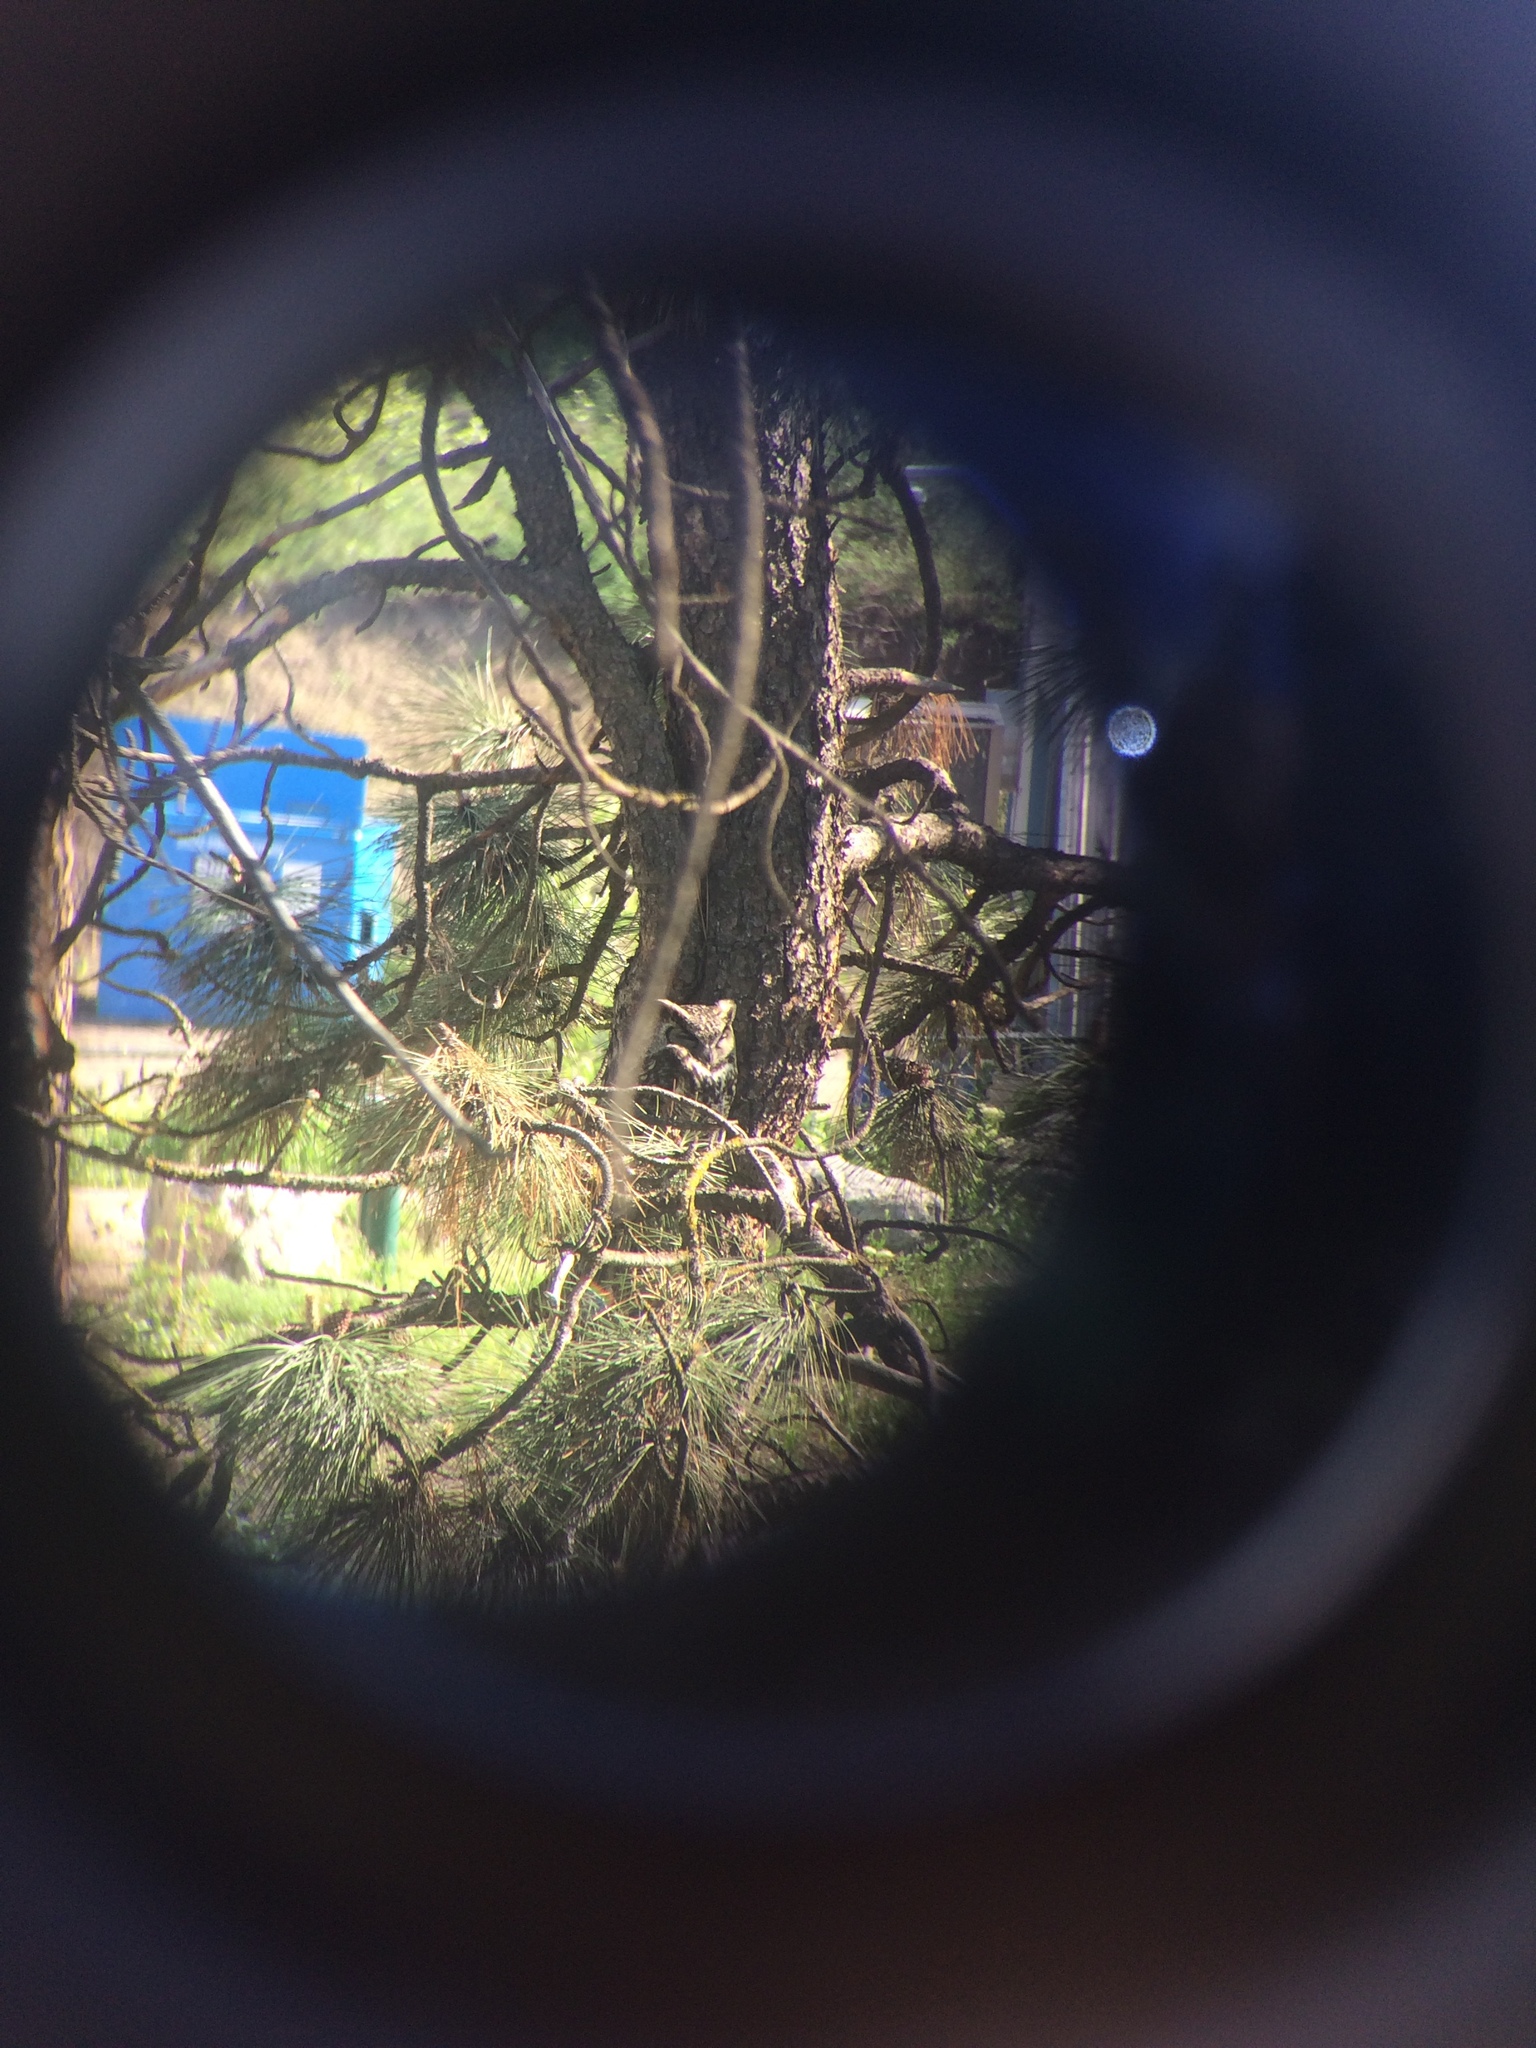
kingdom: Animalia
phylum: Chordata
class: Aves
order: Strigiformes
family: Strigidae
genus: Bubo
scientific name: Bubo virginianus
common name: Great horned owl
